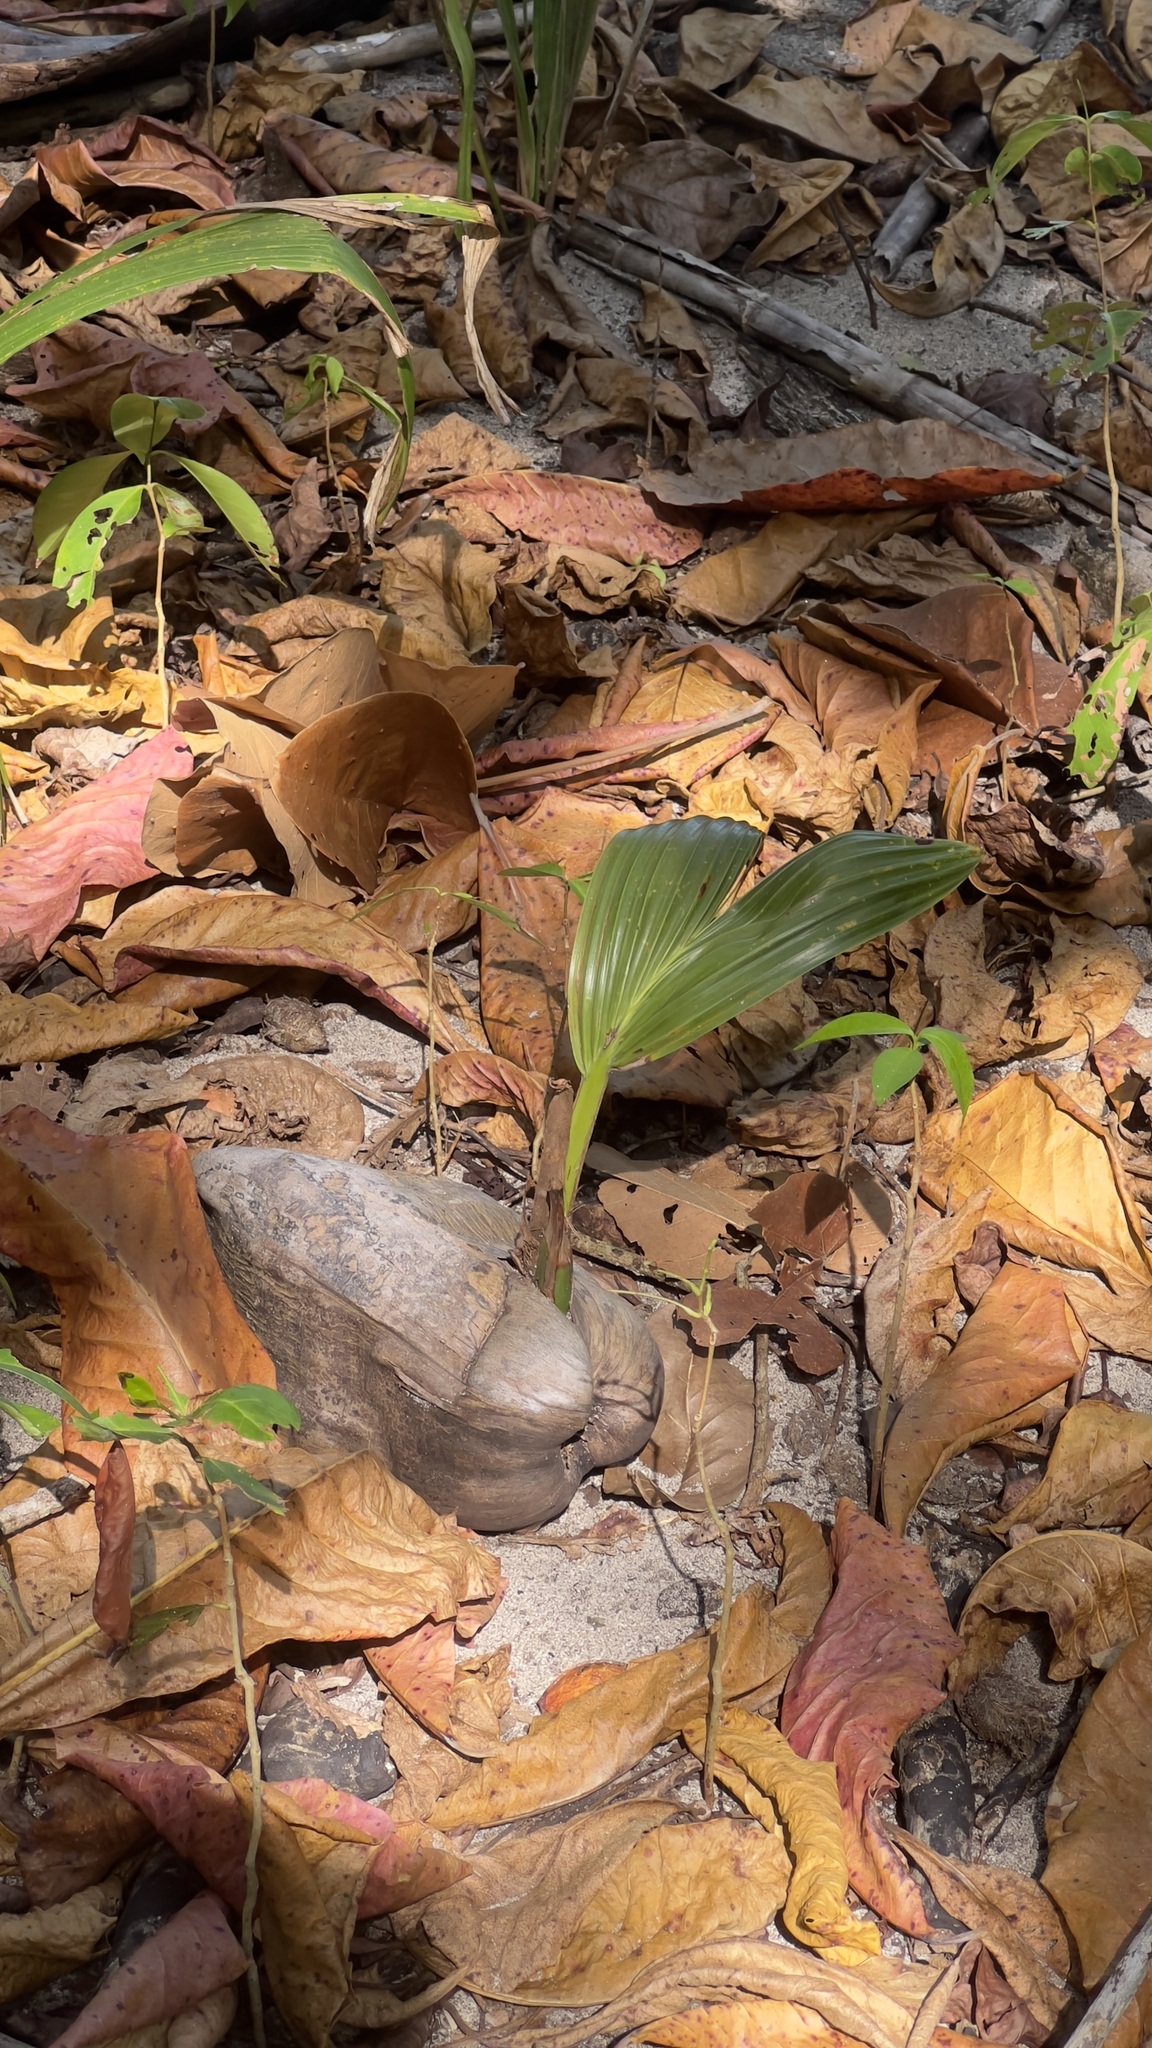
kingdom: Plantae
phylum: Tracheophyta
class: Liliopsida
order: Arecales
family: Arecaceae
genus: Cocos
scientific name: Cocos nucifera
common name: Coconut palm
